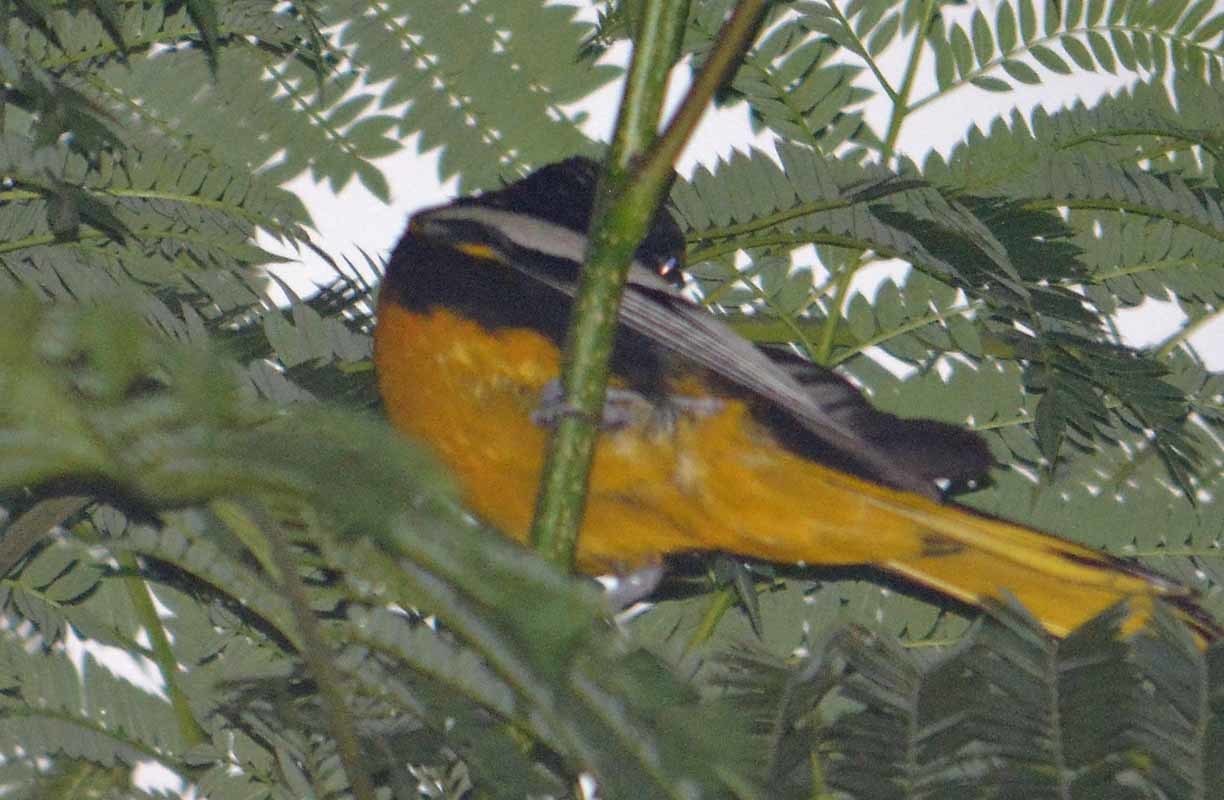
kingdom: Animalia
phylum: Chordata
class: Aves
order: Passeriformes
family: Icteridae
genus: Icterus
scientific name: Icterus abeillei
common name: Black-backed oriole
